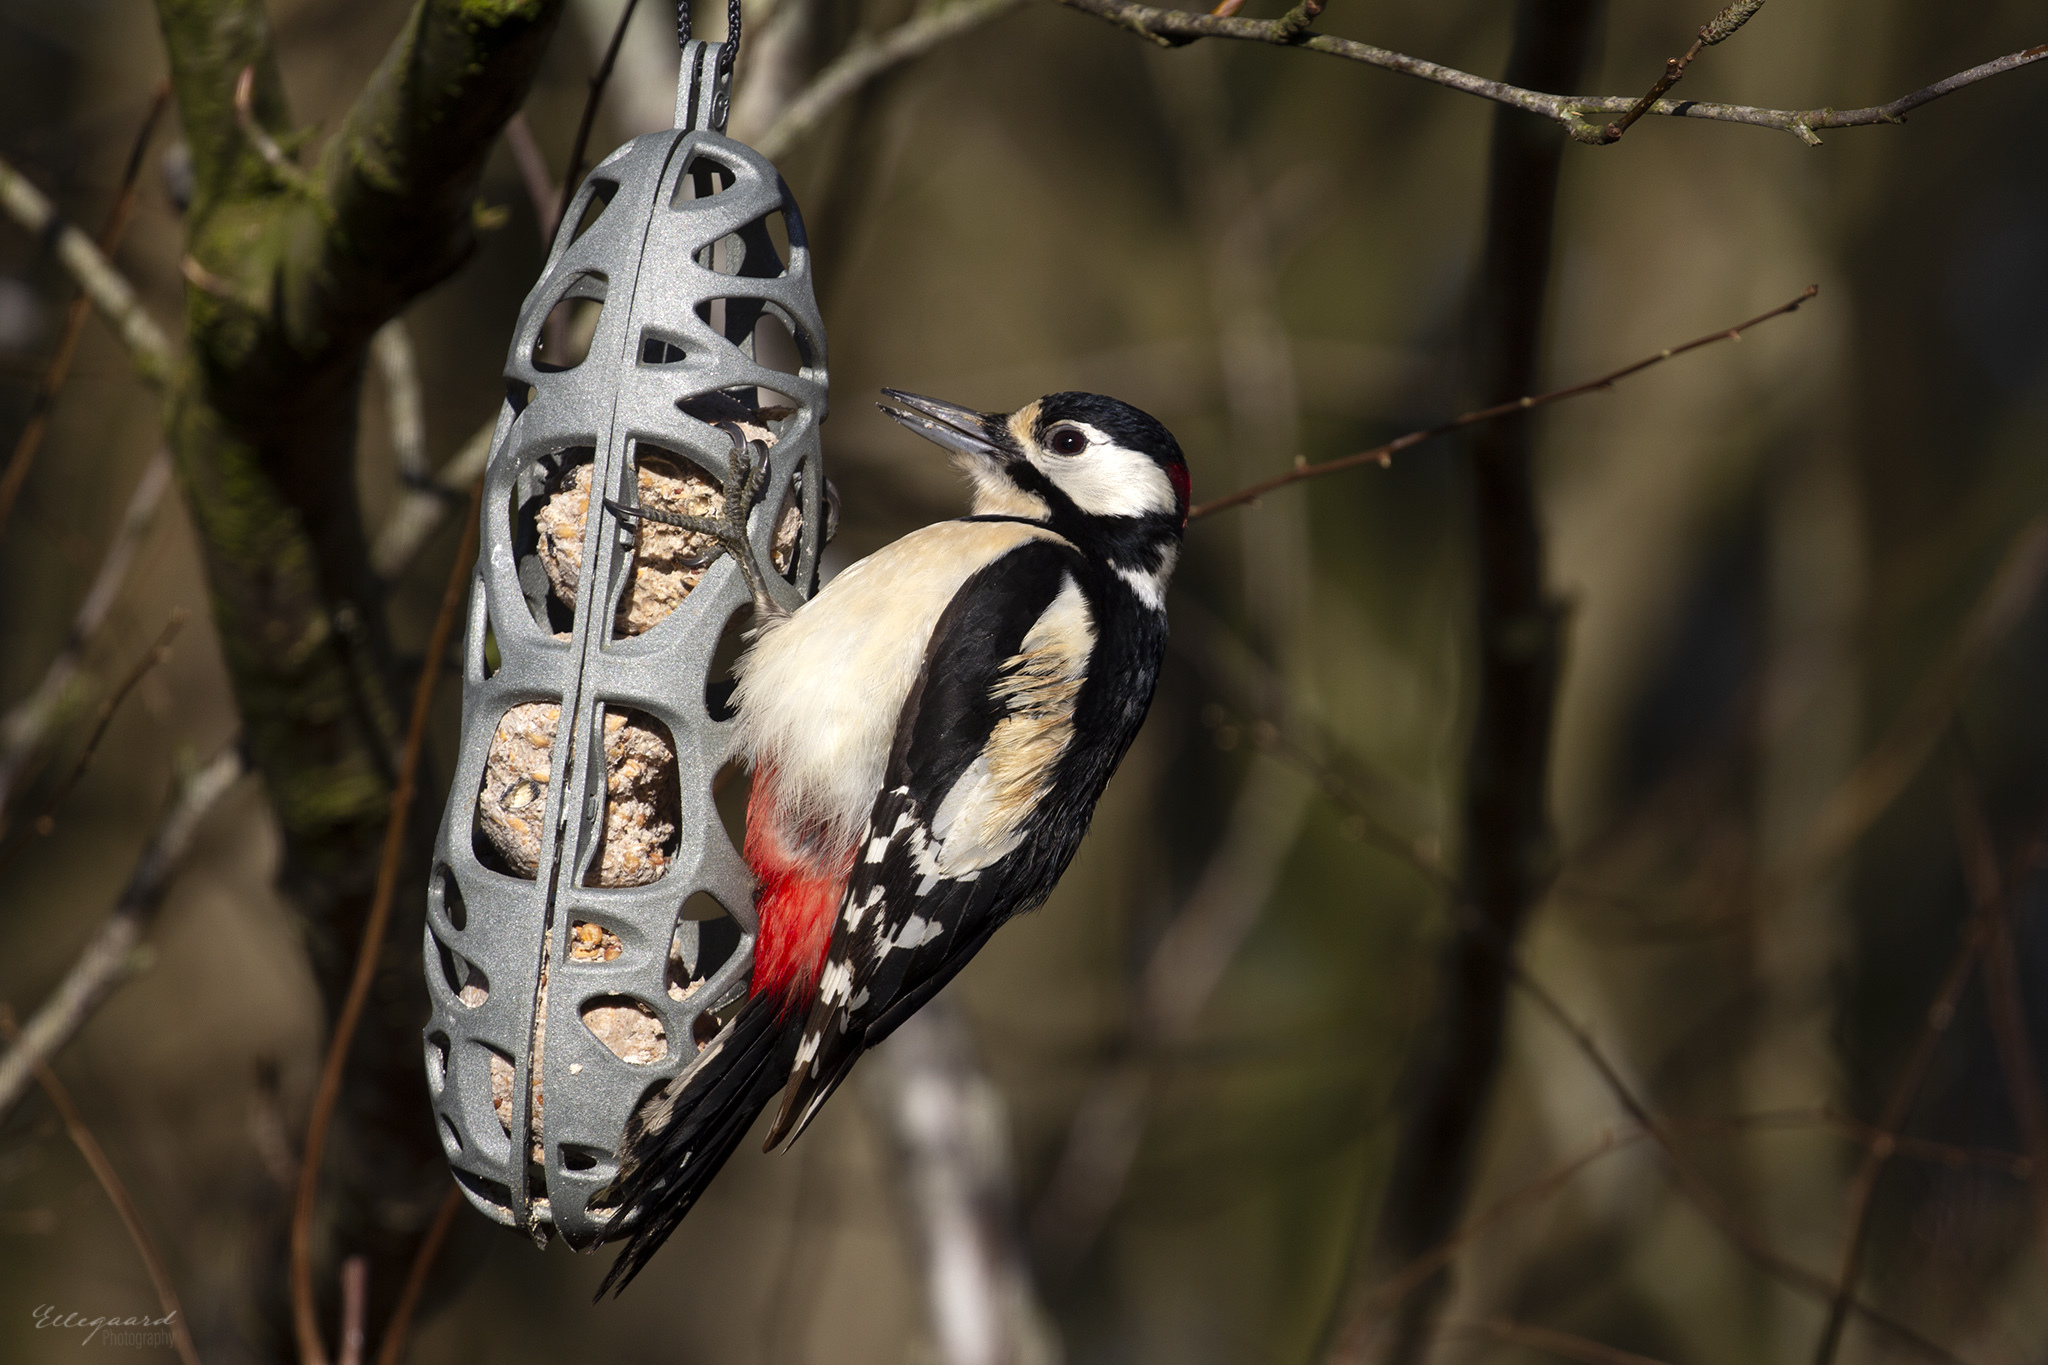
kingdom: Animalia
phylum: Chordata
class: Aves
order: Piciformes
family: Picidae
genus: Dendrocopos
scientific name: Dendrocopos major
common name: Great spotted woodpecker
